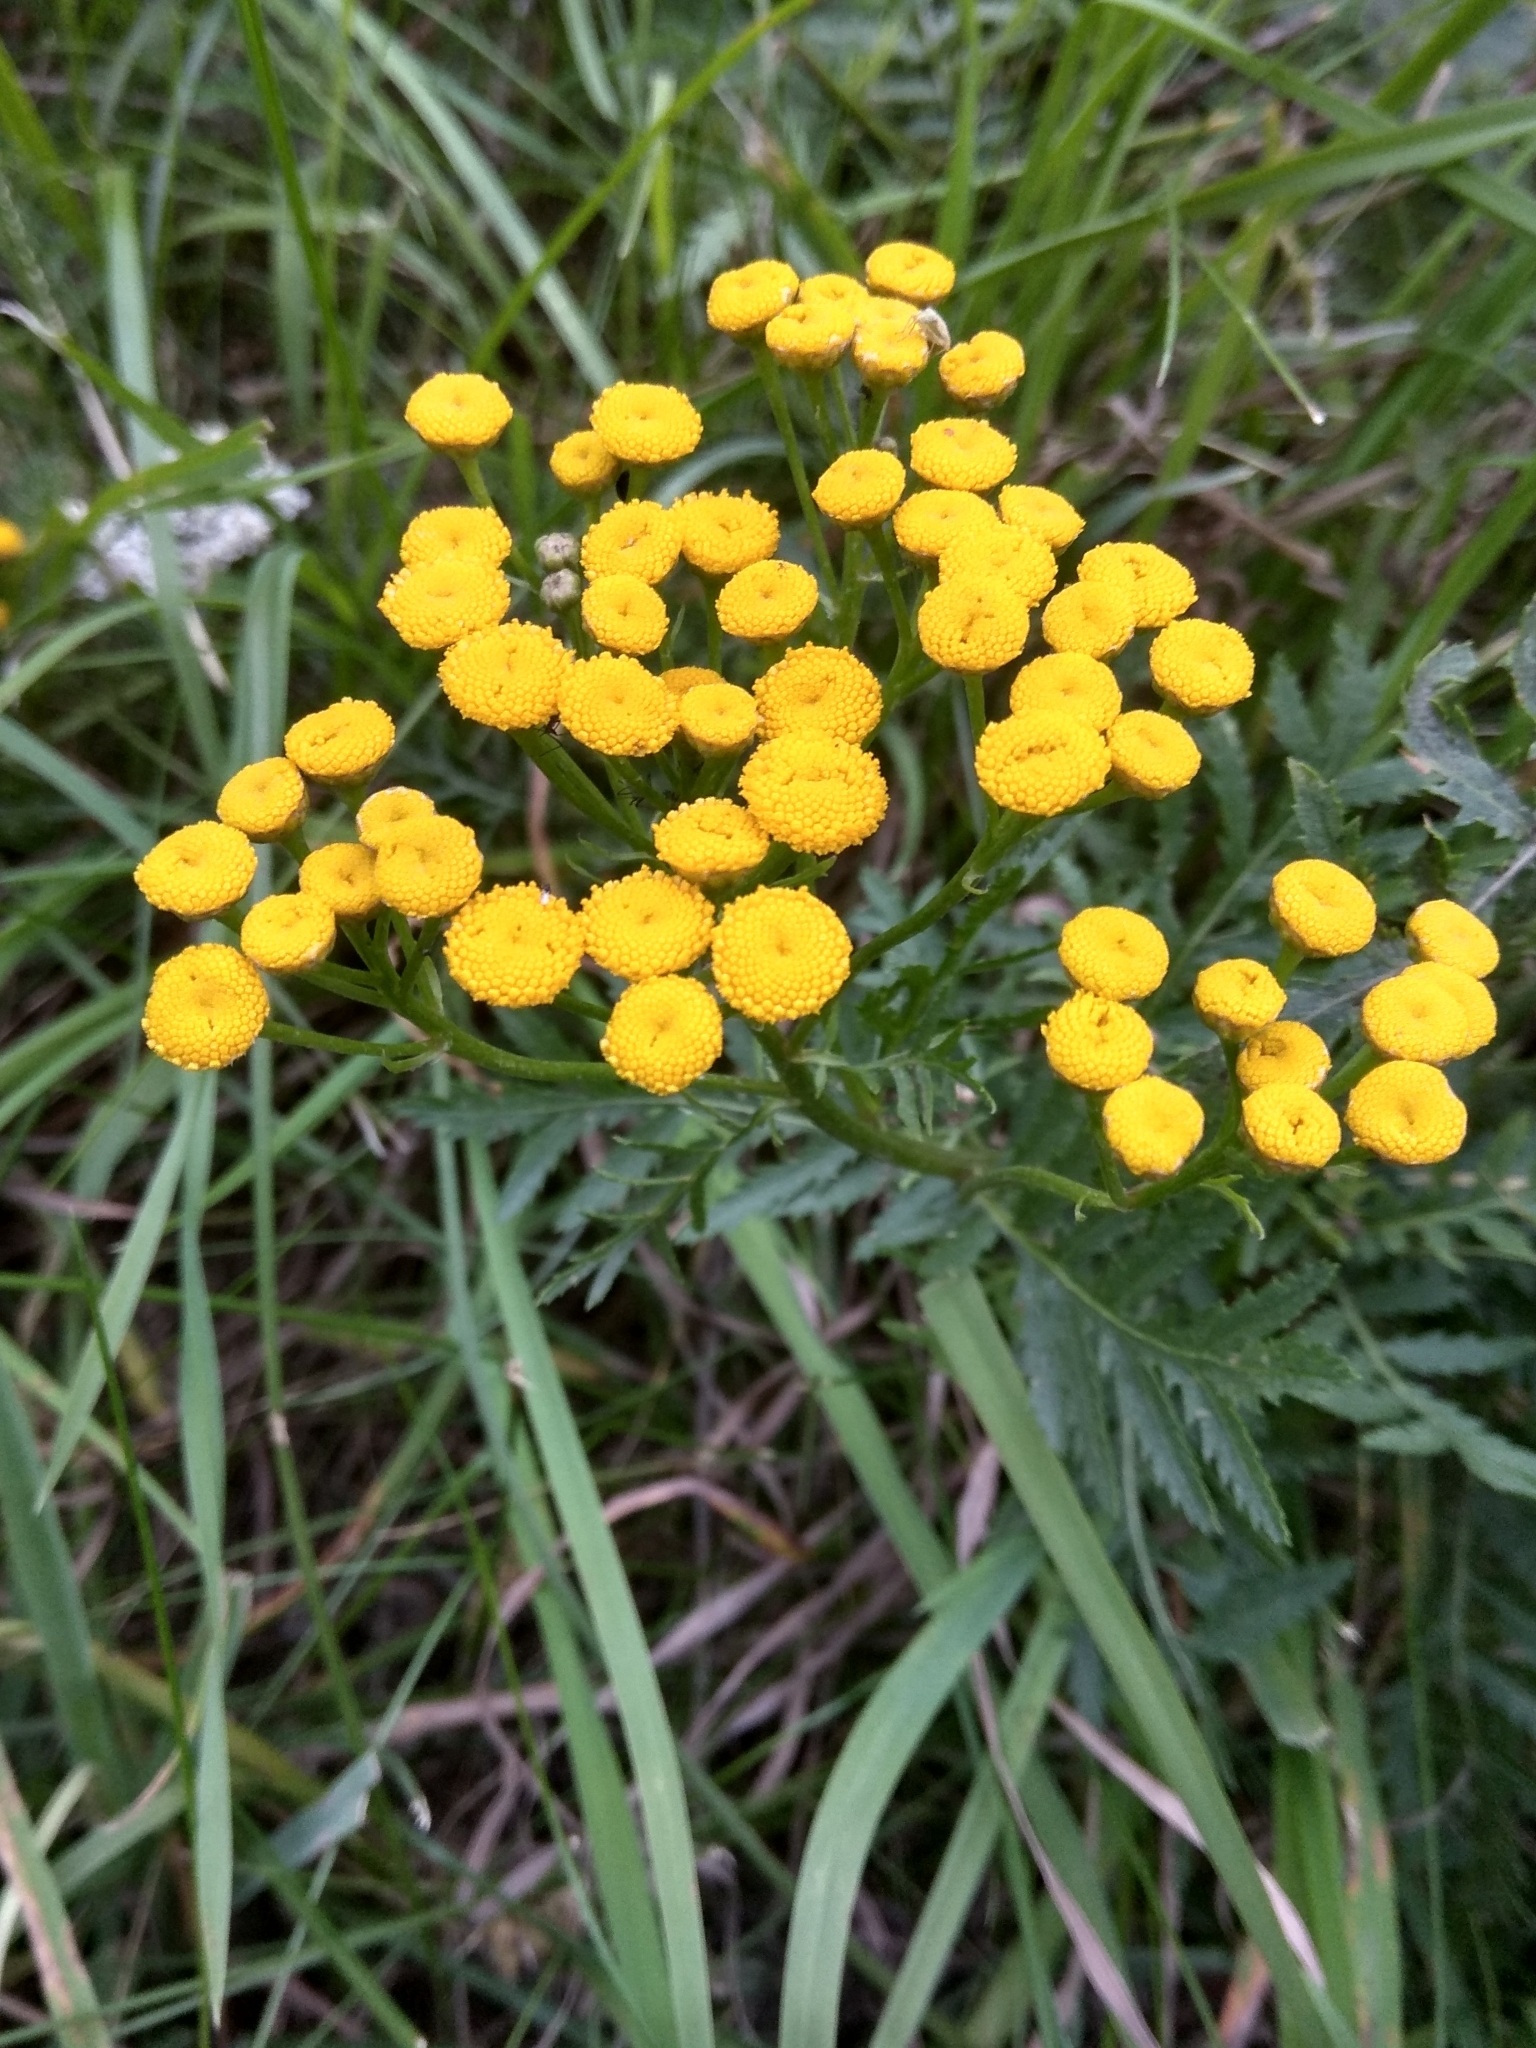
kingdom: Plantae
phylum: Tracheophyta
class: Magnoliopsida
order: Asterales
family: Asteraceae
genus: Tanacetum
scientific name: Tanacetum vulgare
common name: Common tansy
